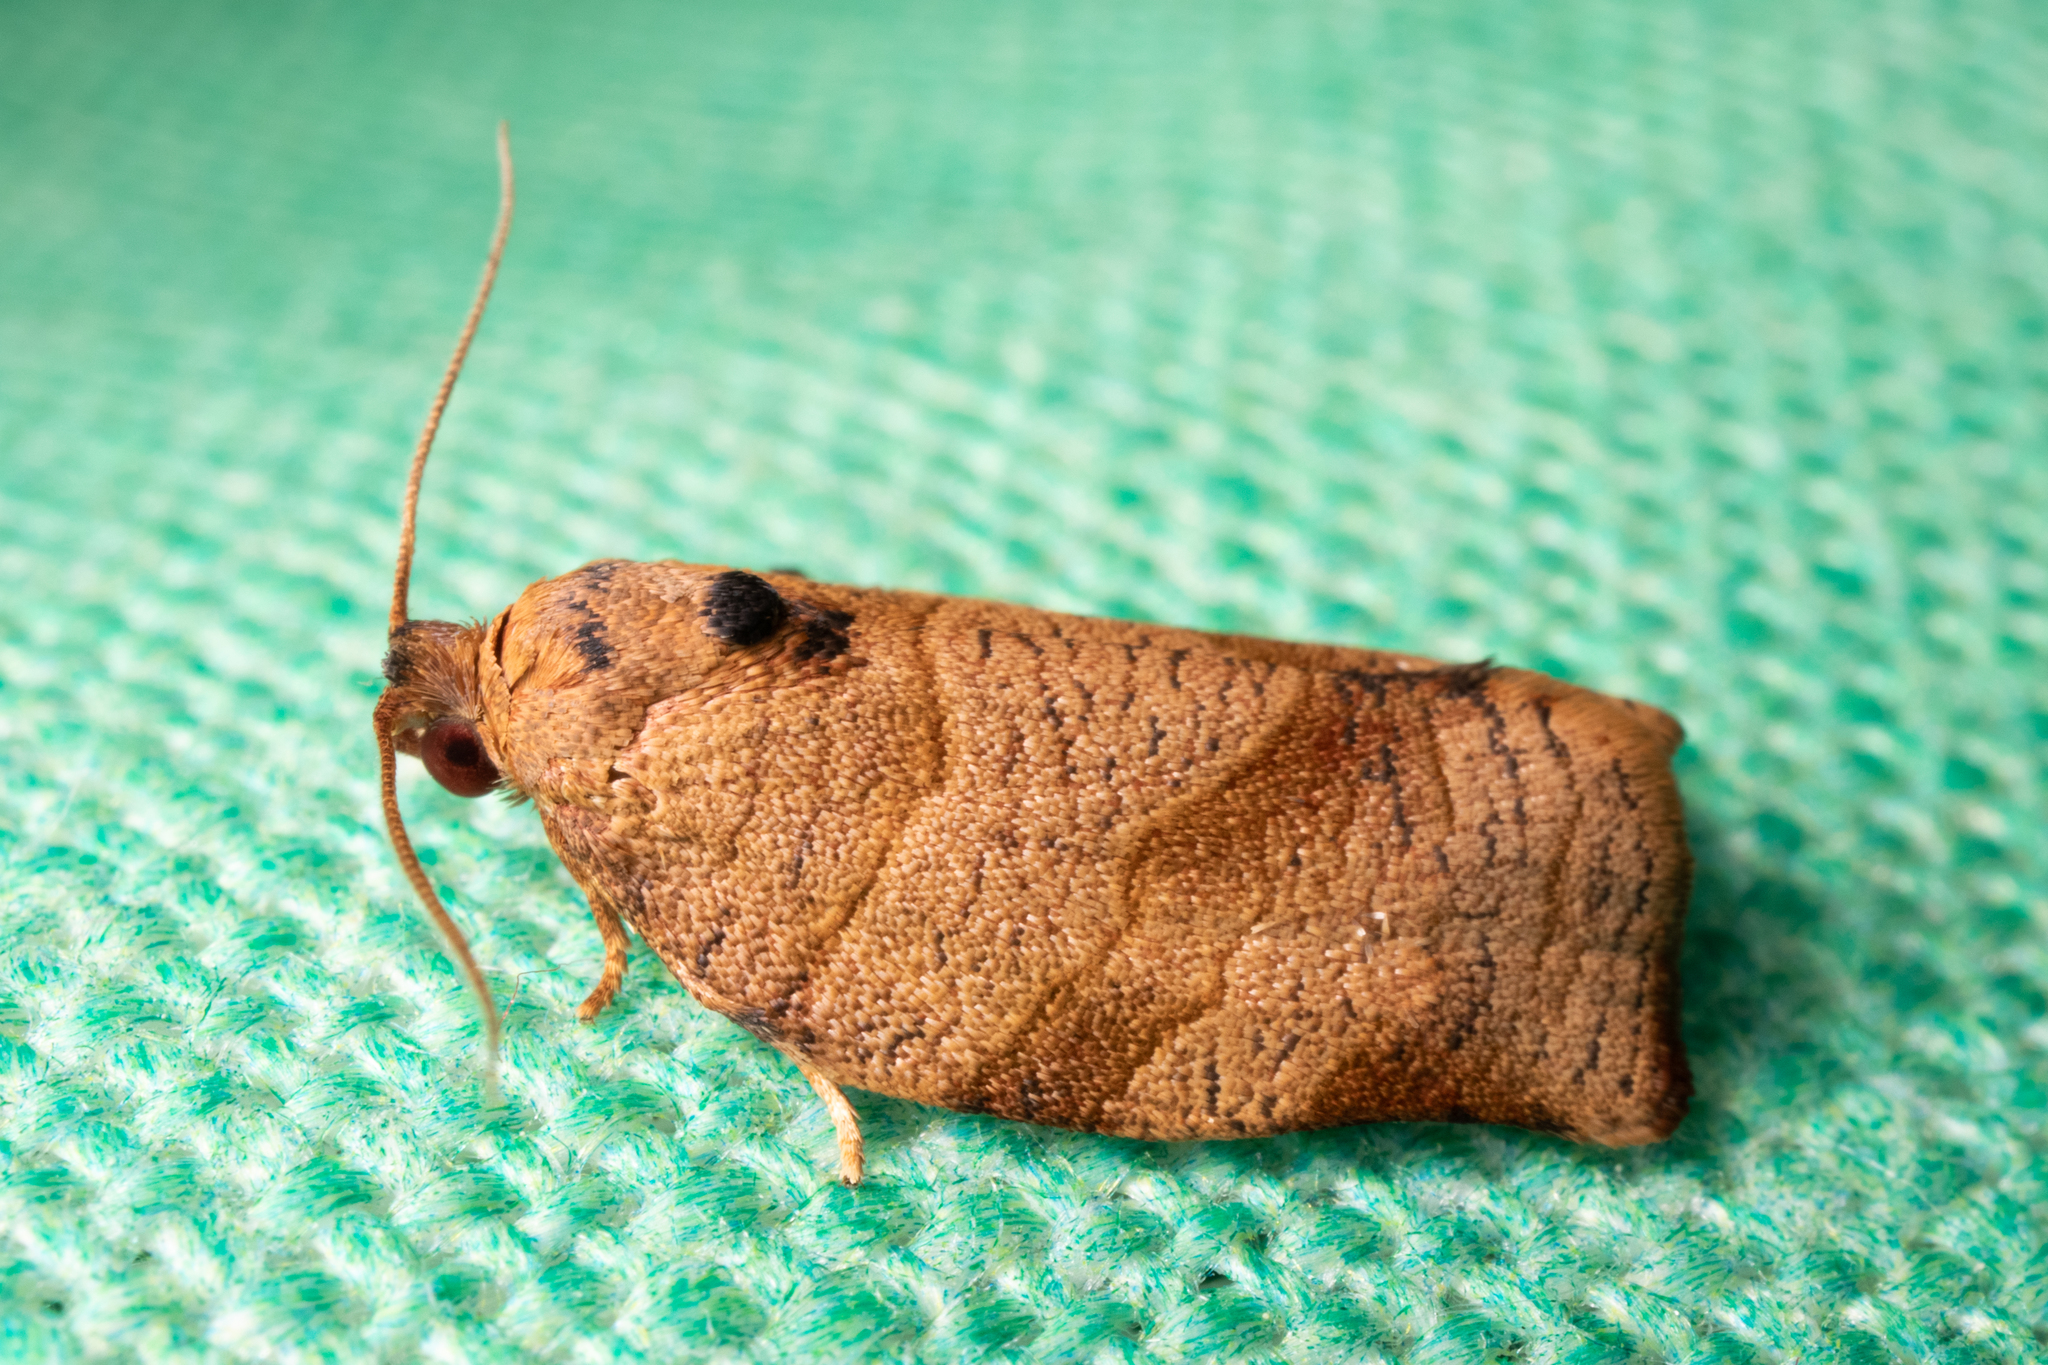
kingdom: Animalia
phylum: Arthropoda
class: Insecta
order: Lepidoptera
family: Tortricidae
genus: Choristoneura
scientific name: Choristoneura rosaceana
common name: Oblique-banded leafroller moth
